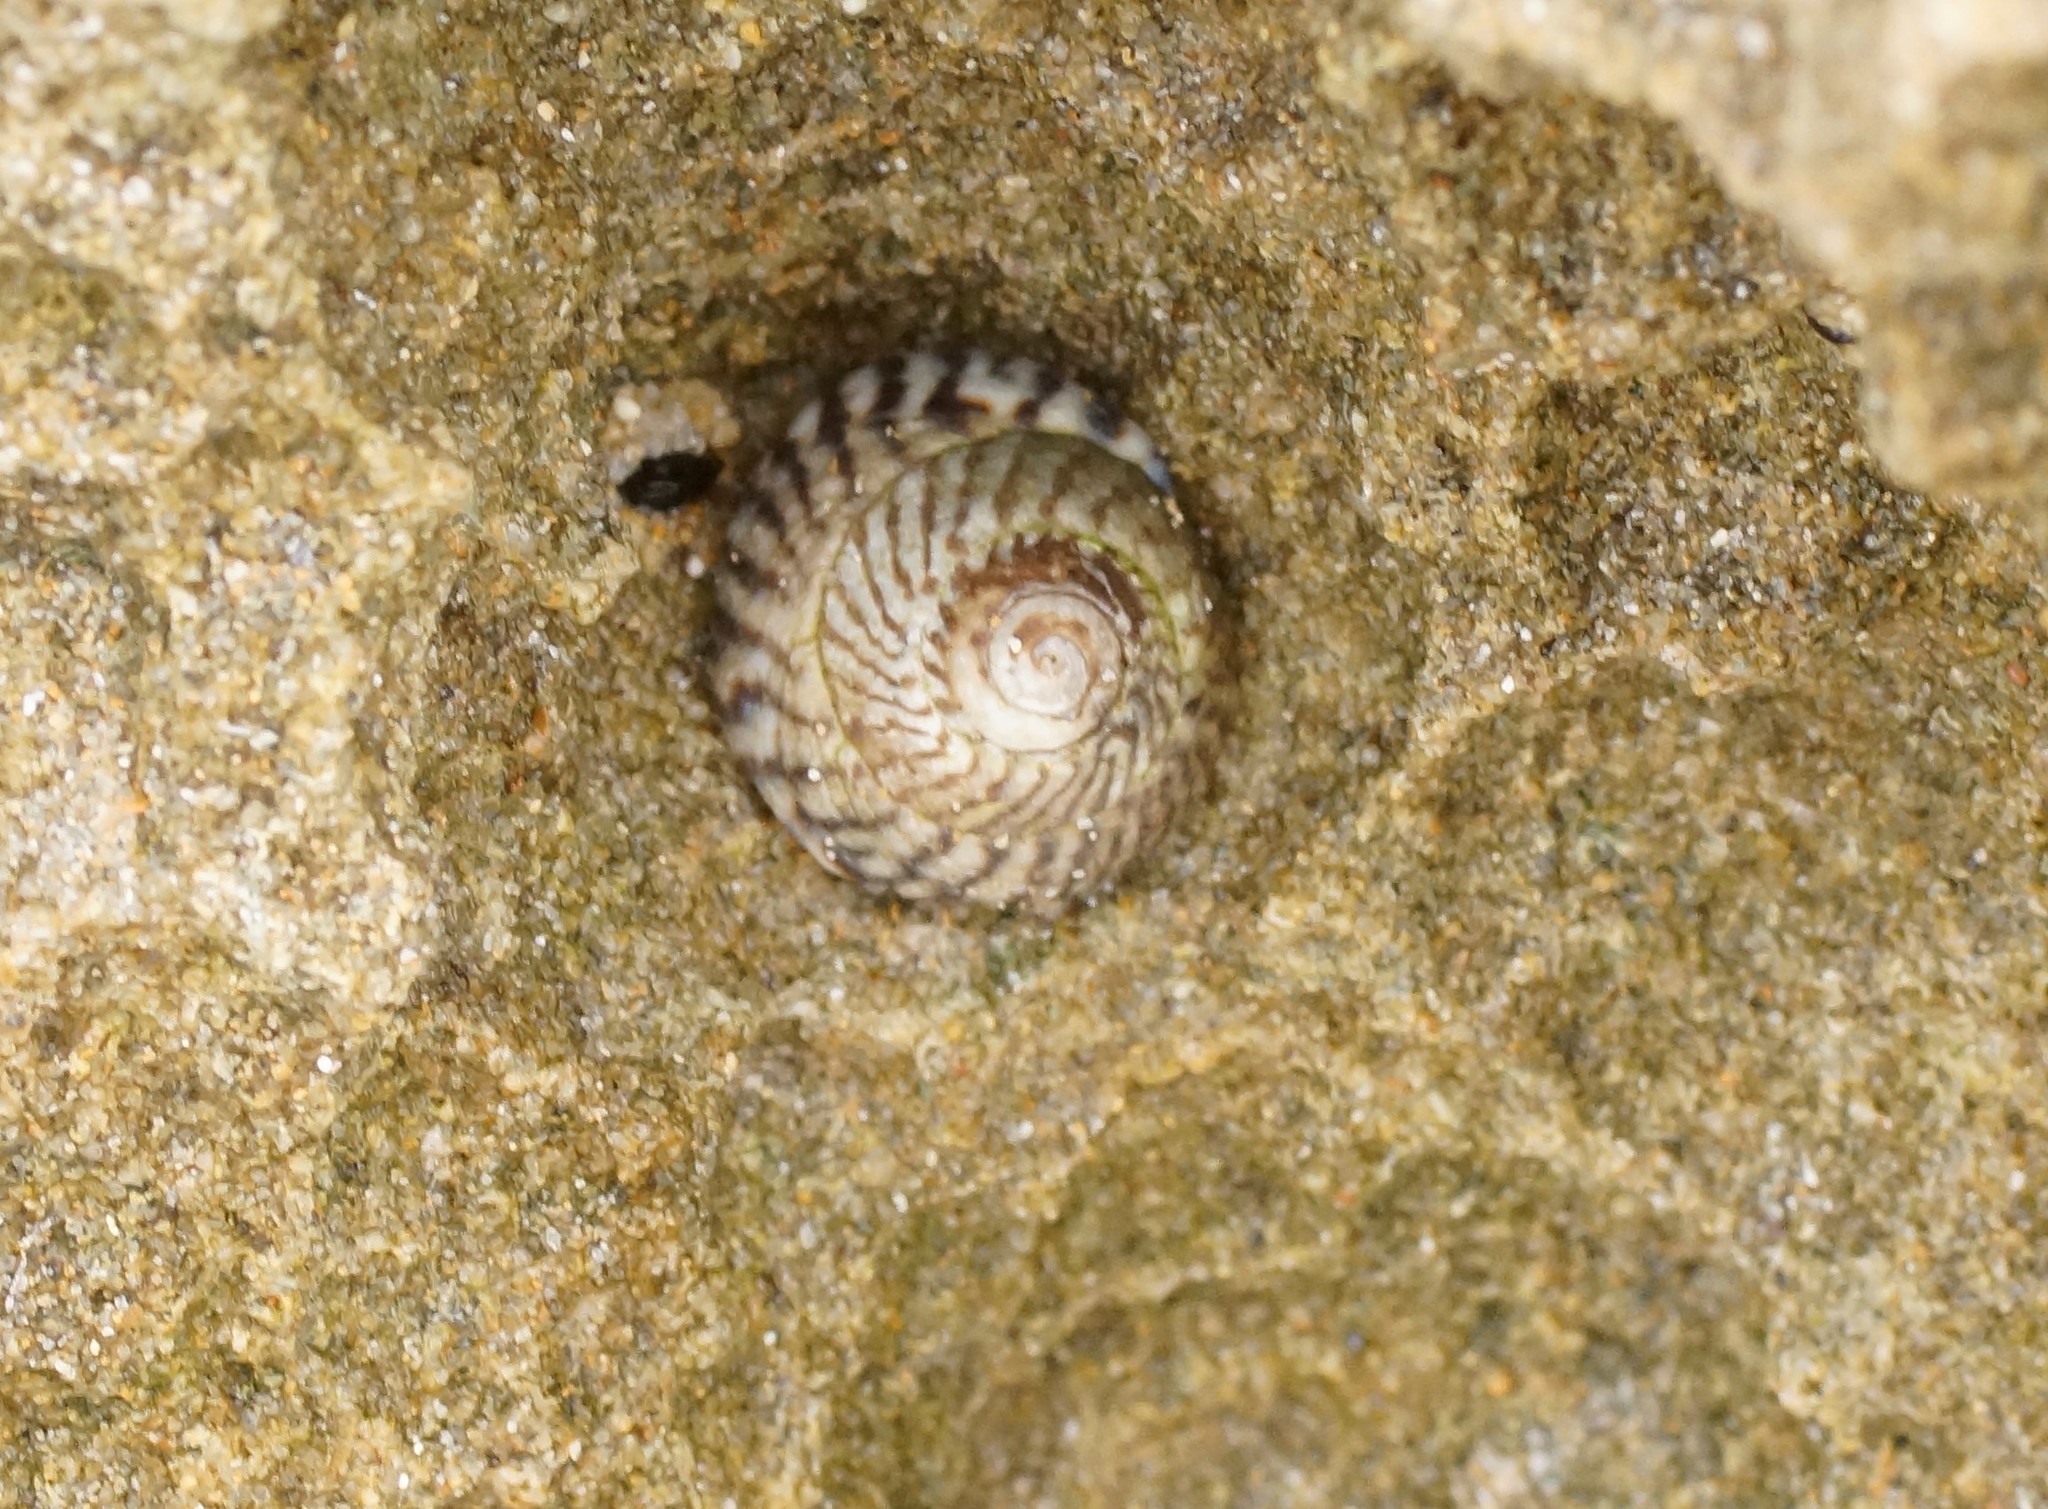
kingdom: Animalia
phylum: Mollusca
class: Gastropoda
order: Littorinimorpha
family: Littorinidae
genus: Bembicium
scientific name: Bembicium nanum
